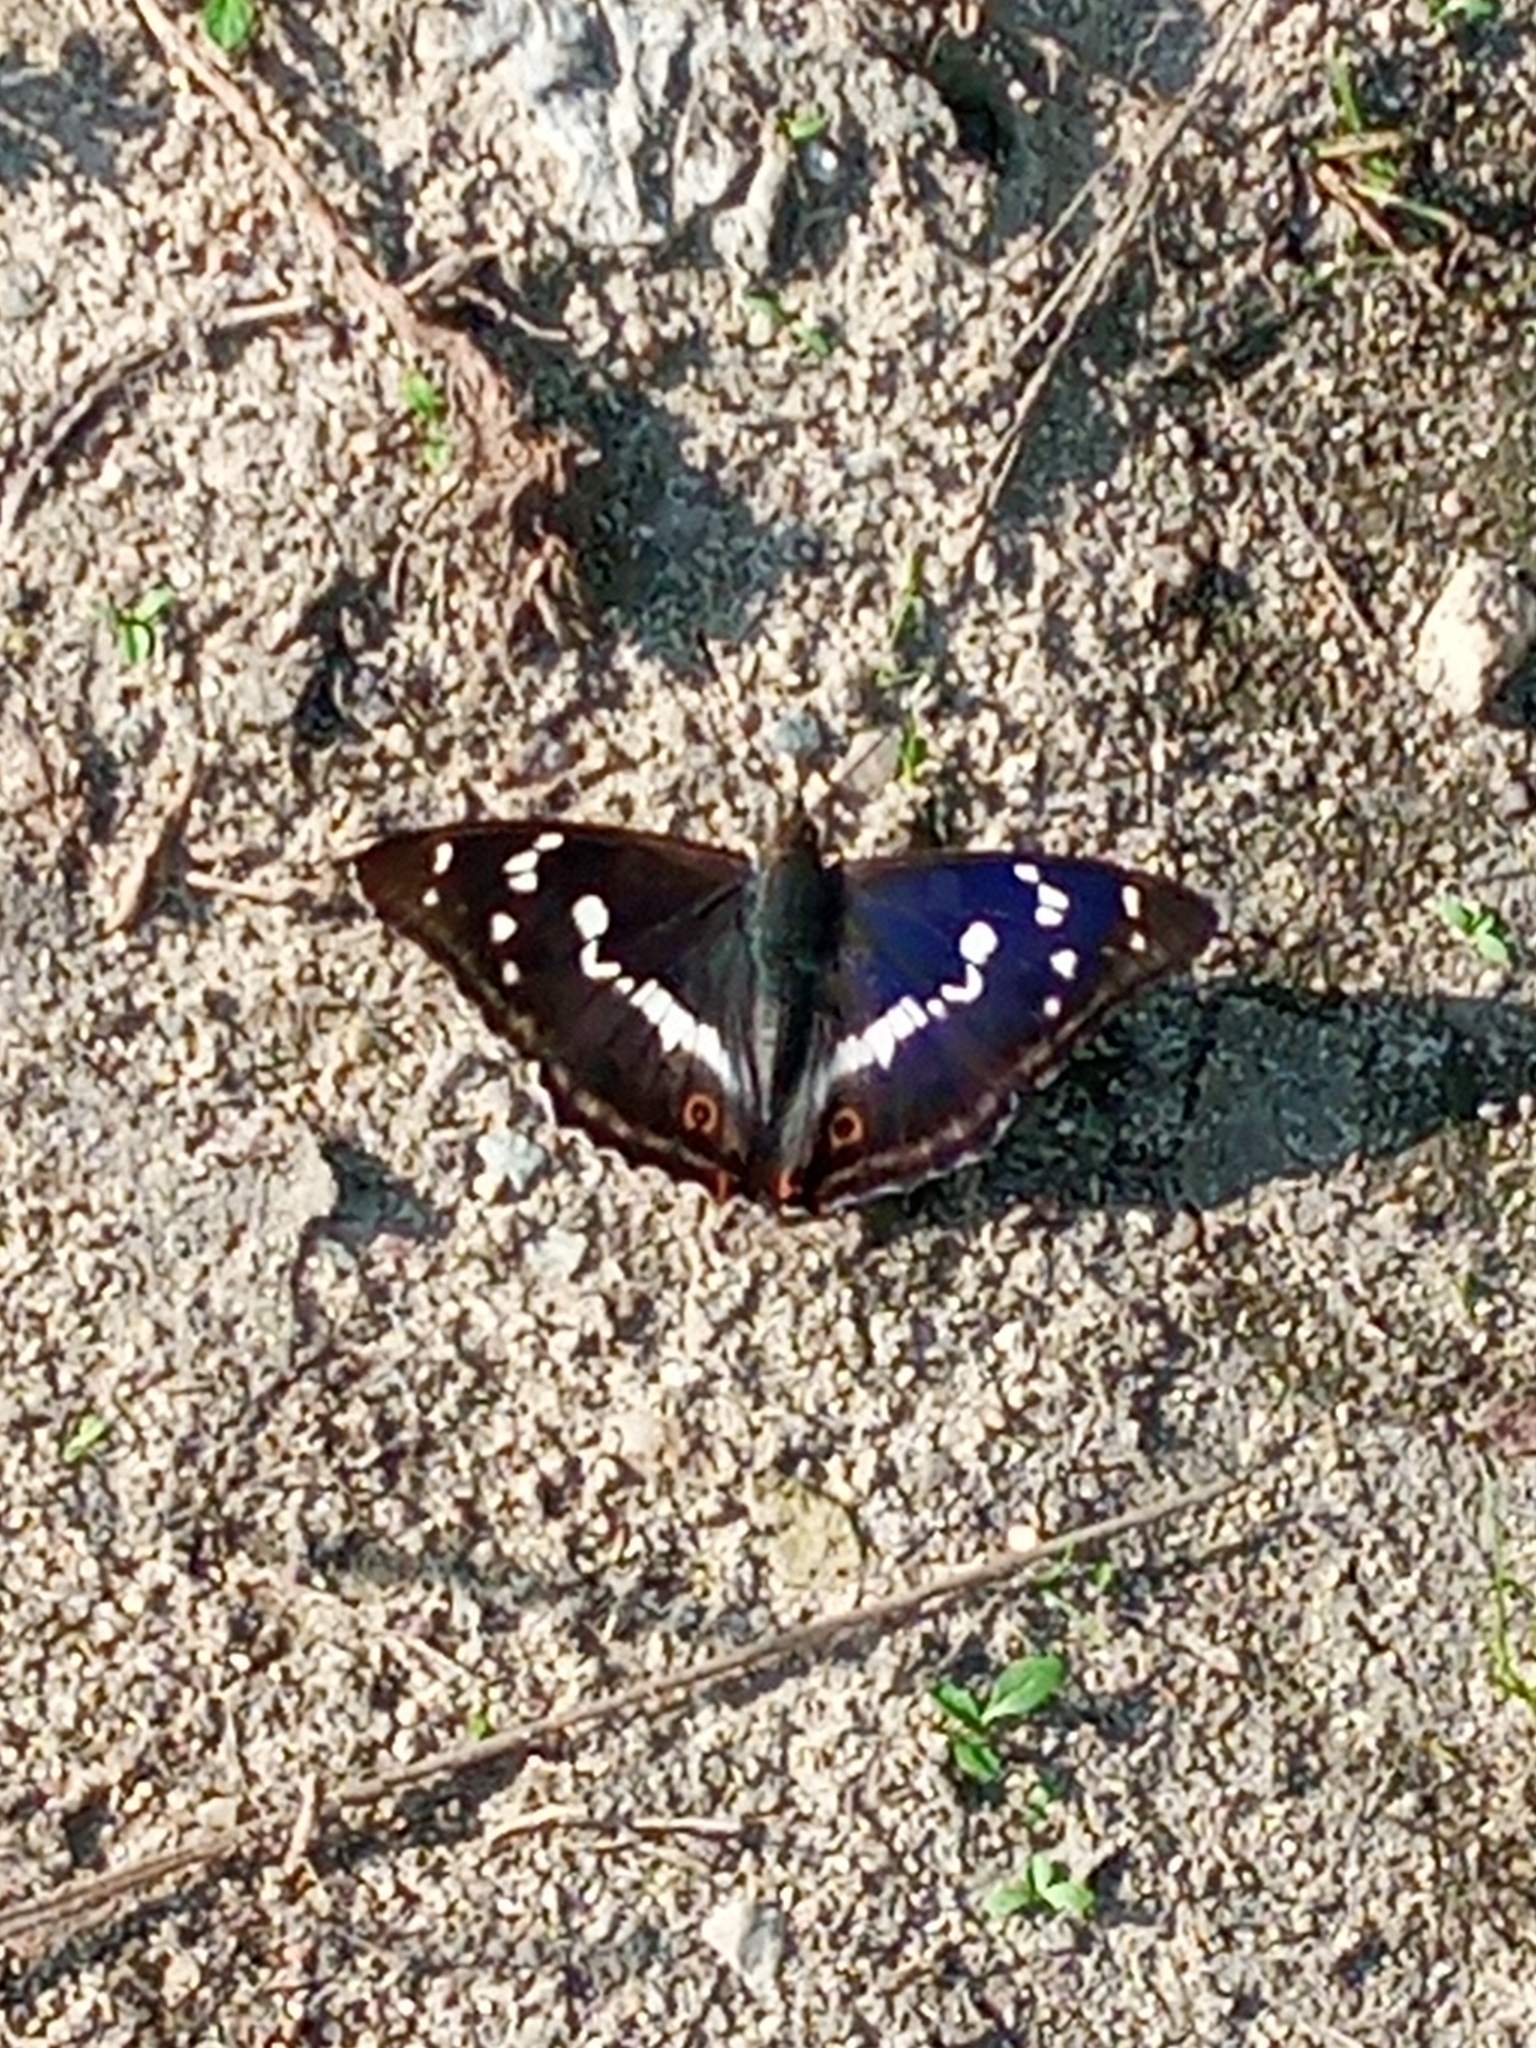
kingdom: Animalia
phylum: Arthropoda
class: Insecta
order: Lepidoptera
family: Nymphalidae
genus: Apatura
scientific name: Apatura iris
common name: Purple emperor
